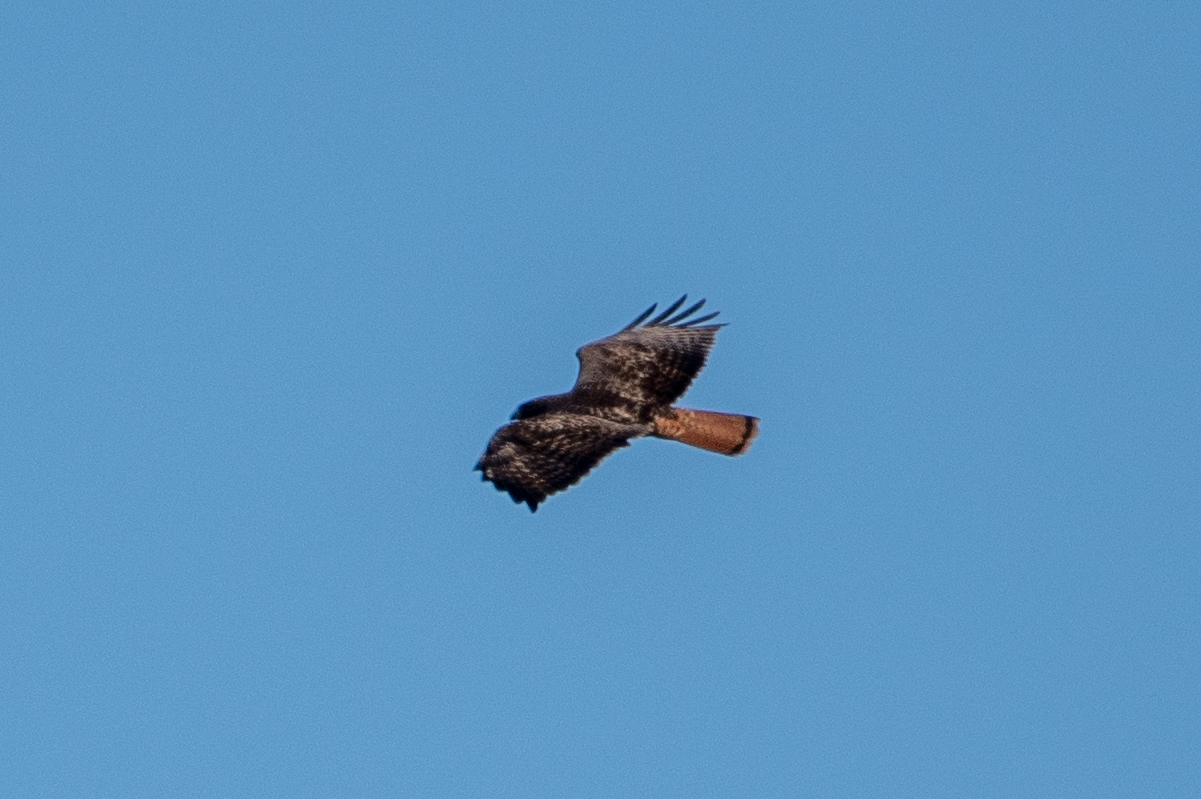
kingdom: Animalia
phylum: Chordata
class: Aves
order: Accipitriformes
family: Accipitridae
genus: Buteo
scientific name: Buteo jamaicensis
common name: Red-tailed hawk
